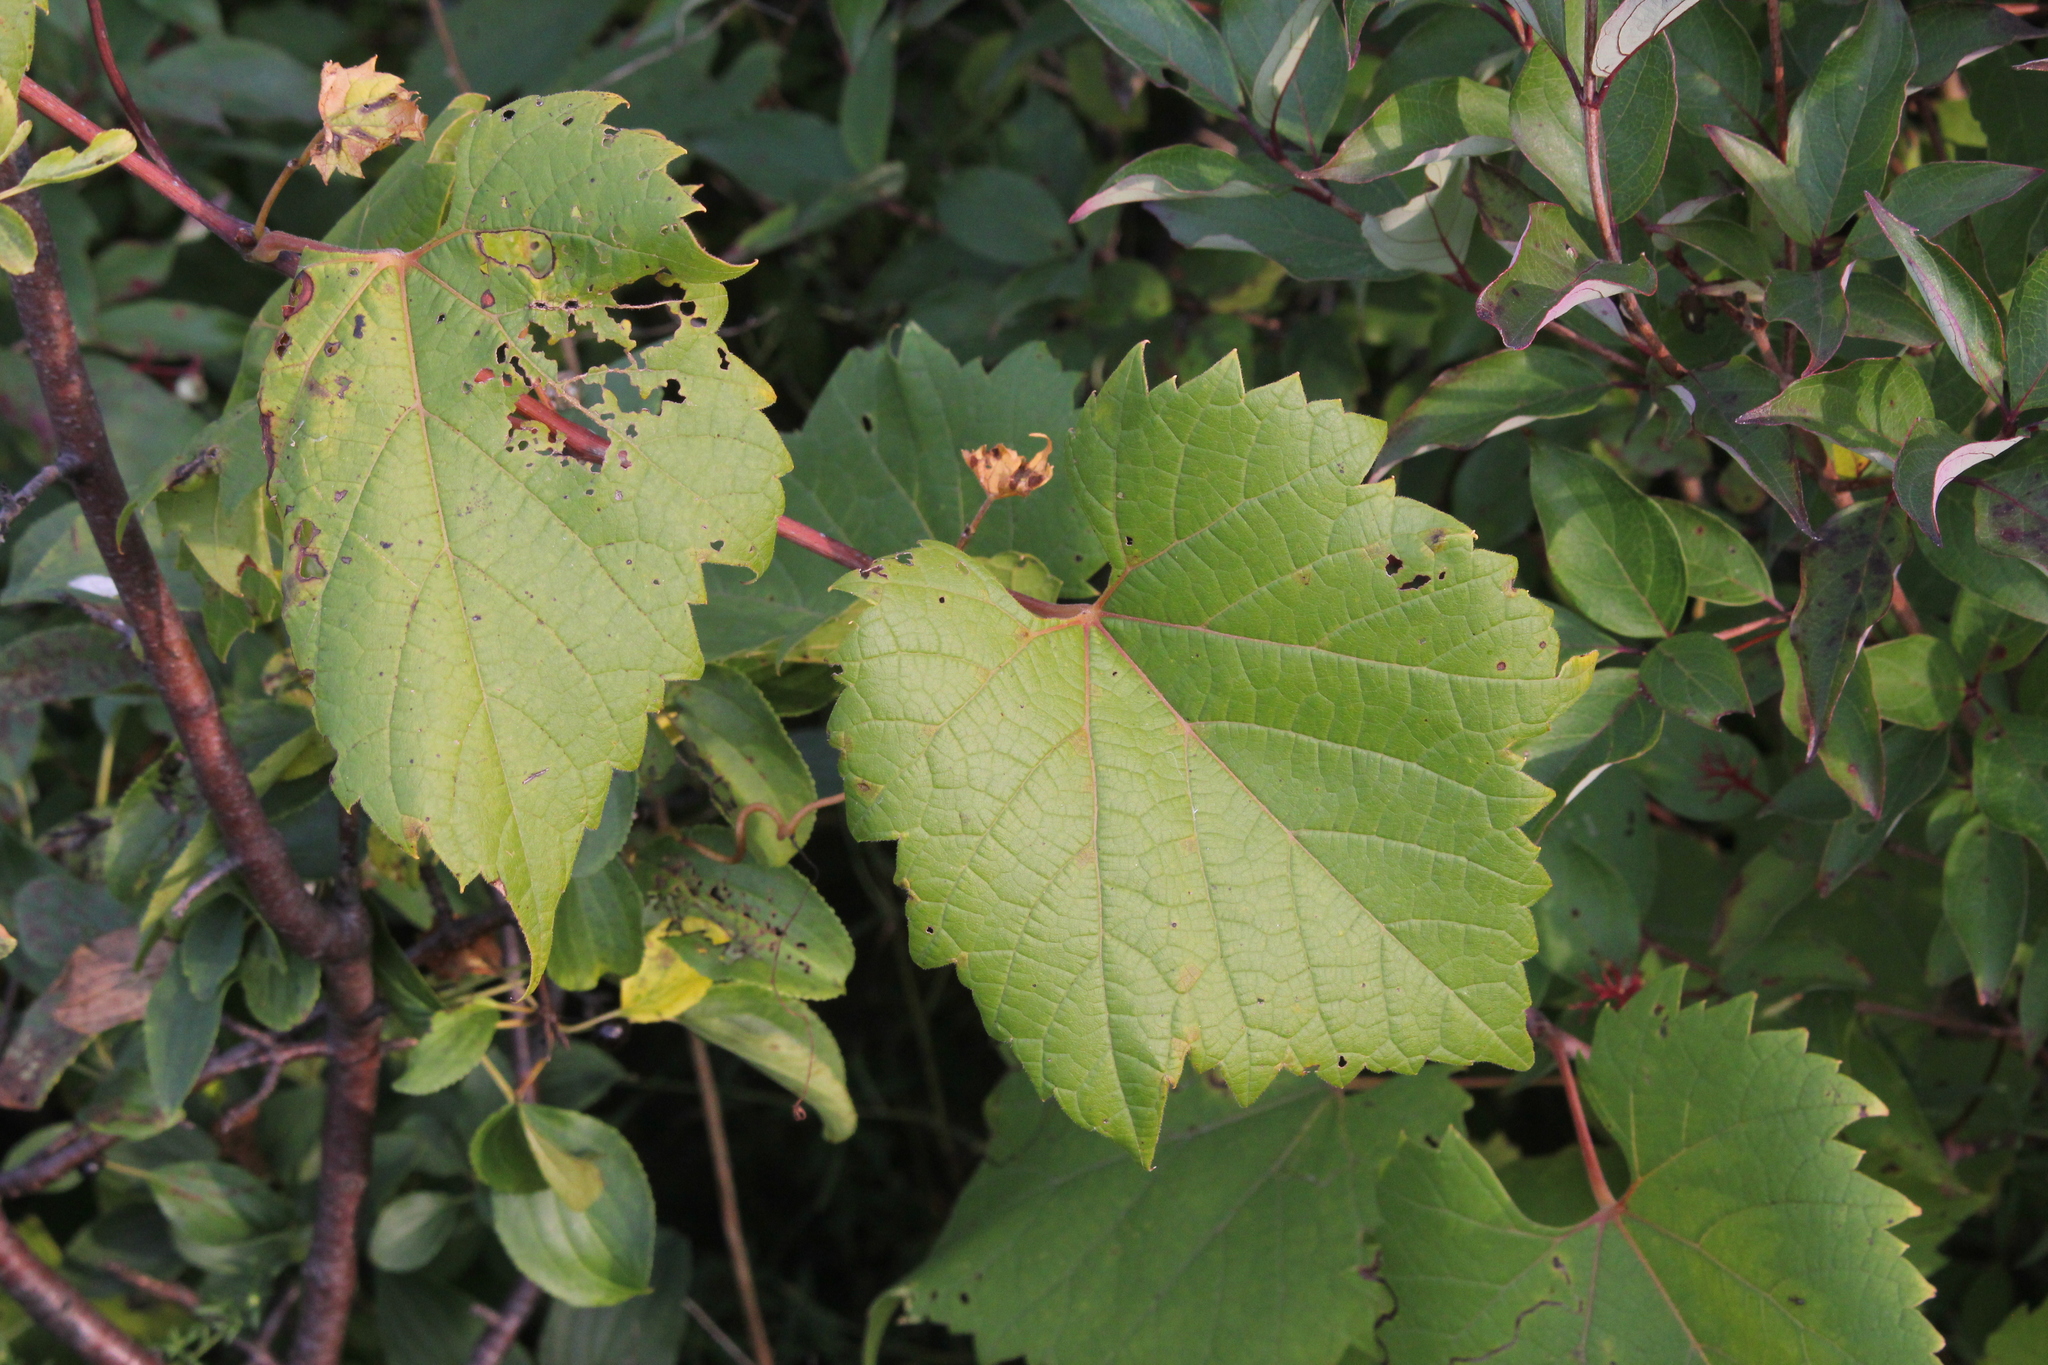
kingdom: Plantae
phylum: Tracheophyta
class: Magnoliopsida
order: Vitales
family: Vitaceae
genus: Vitis
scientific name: Vitis riparia
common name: Frost grape
